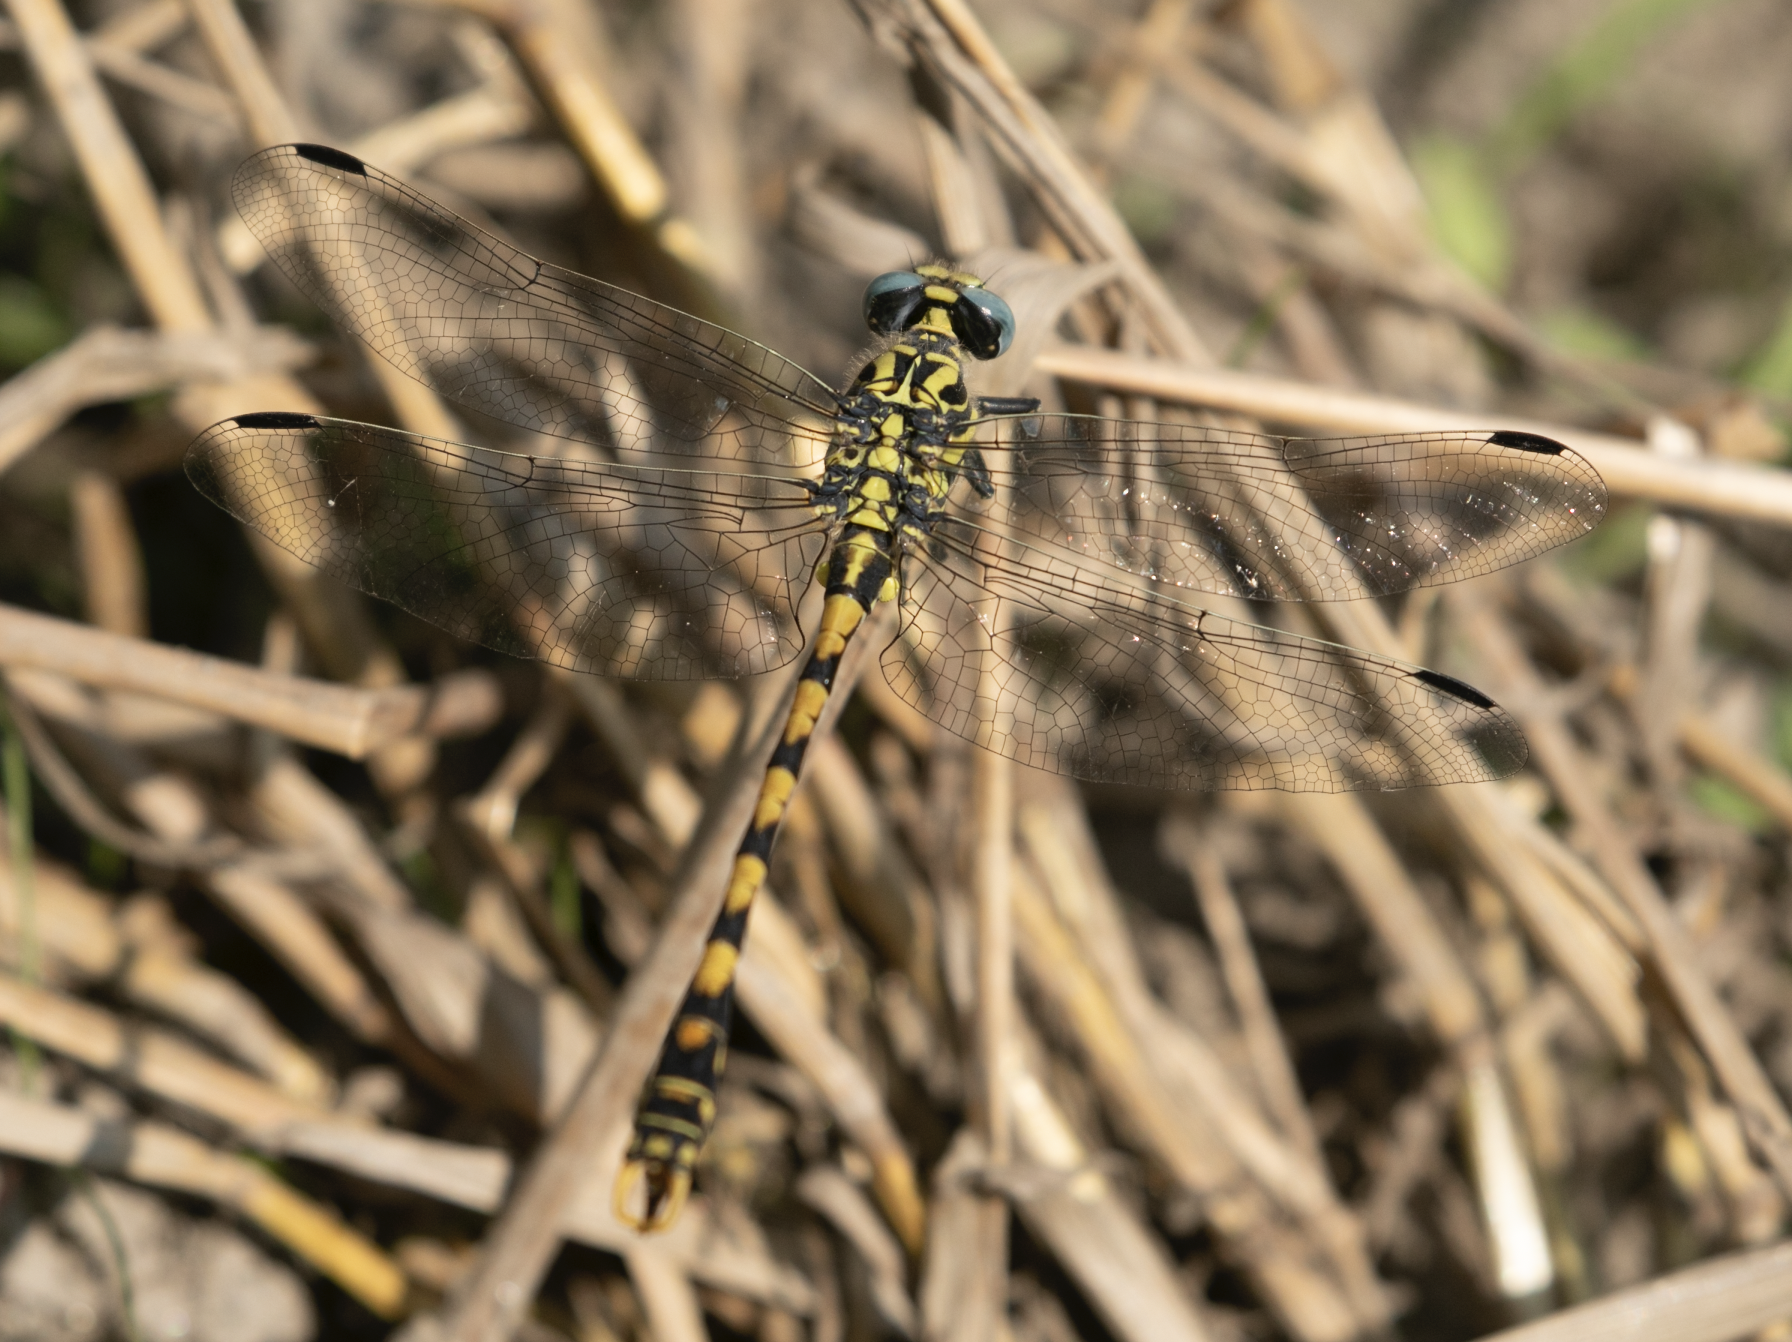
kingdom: Animalia
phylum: Arthropoda
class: Insecta
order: Odonata
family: Gomphidae
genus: Onychogomphus
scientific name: Onychogomphus uncatus
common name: Large pincertail
